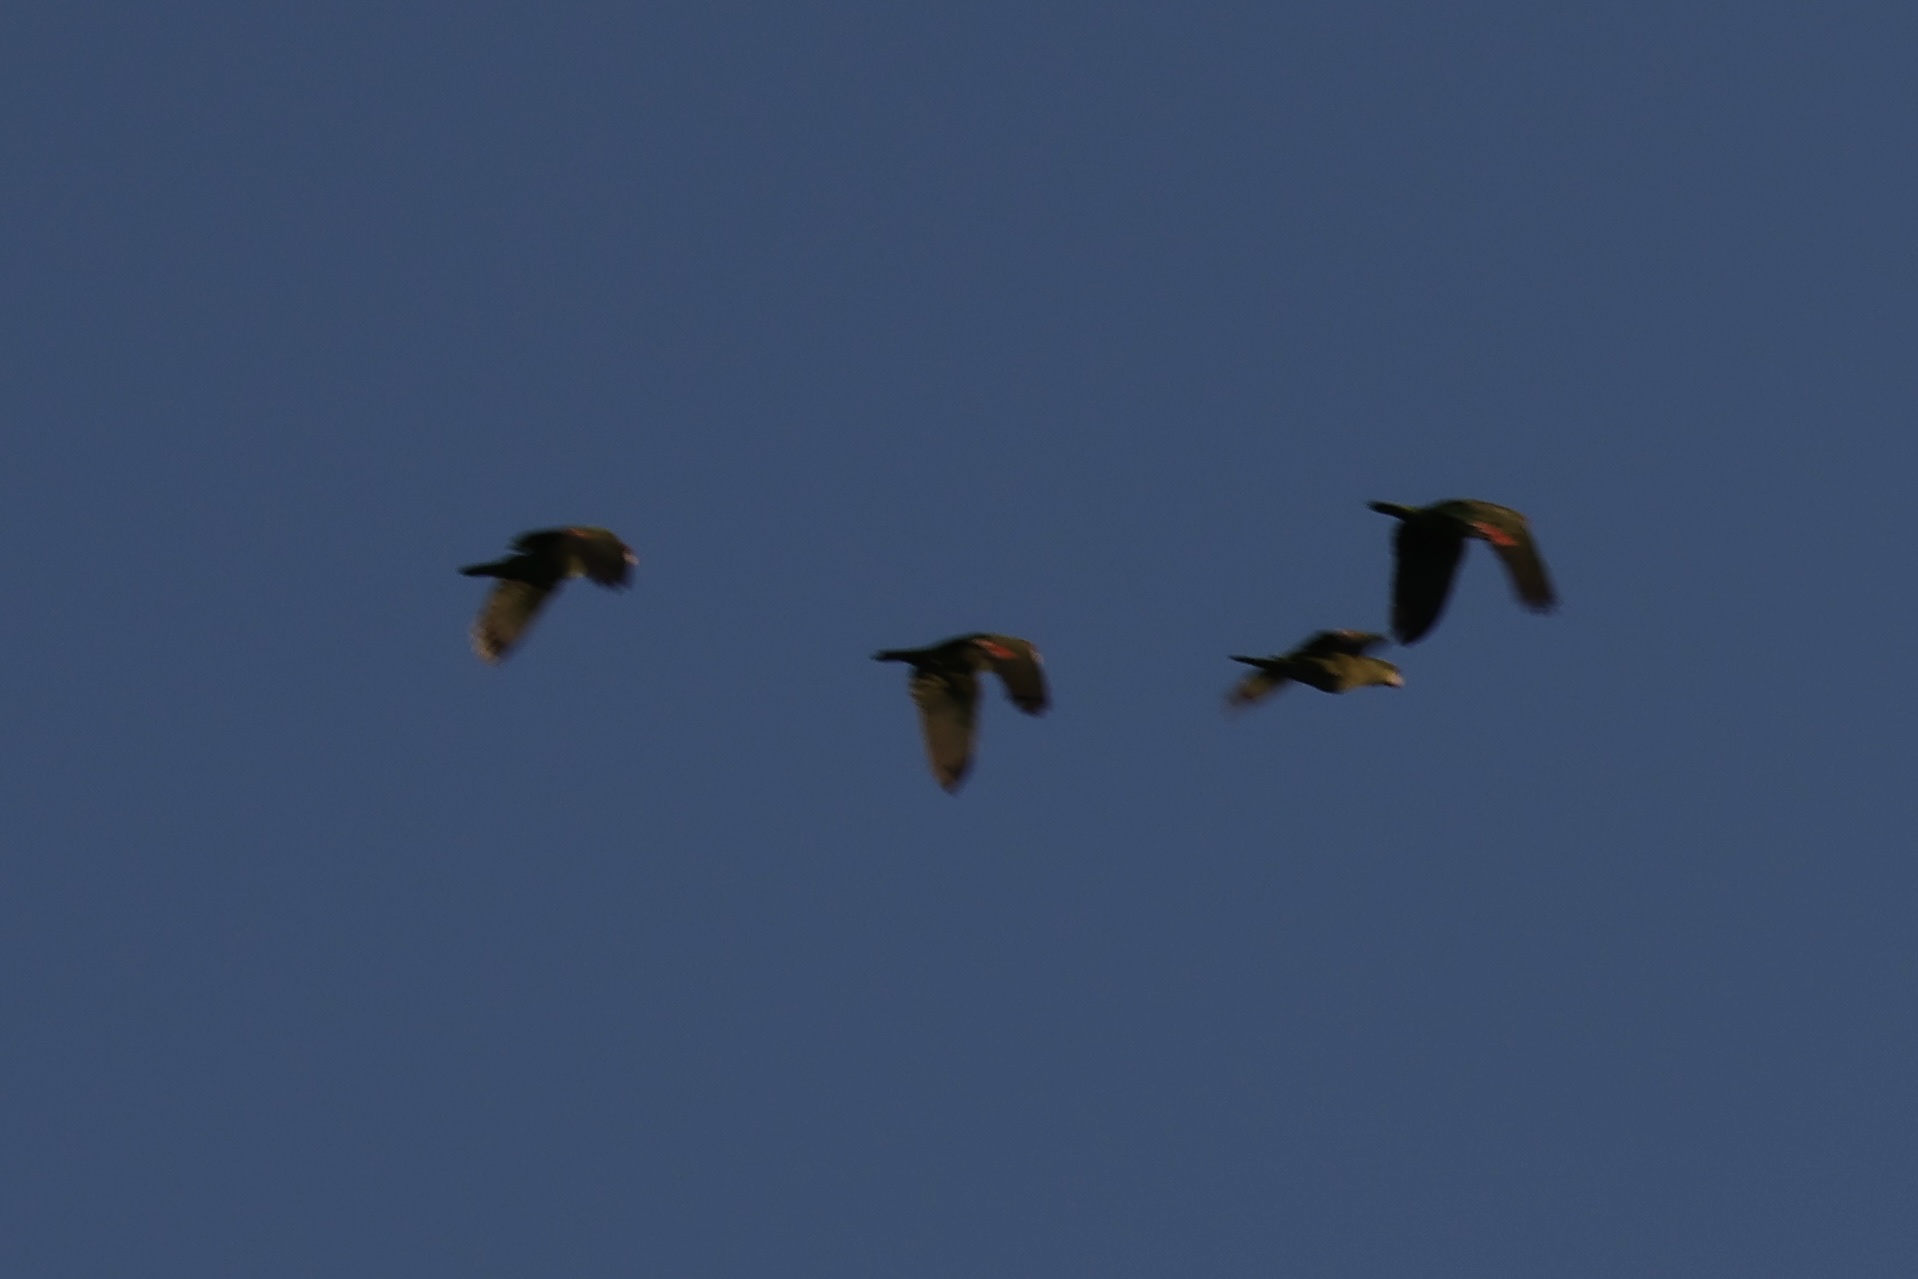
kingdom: Animalia
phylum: Chordata
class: Aves
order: Psittaciformes
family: Psittacidae
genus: Amazona
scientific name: Amazona viridigenalis
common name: Red-crowned amazon
